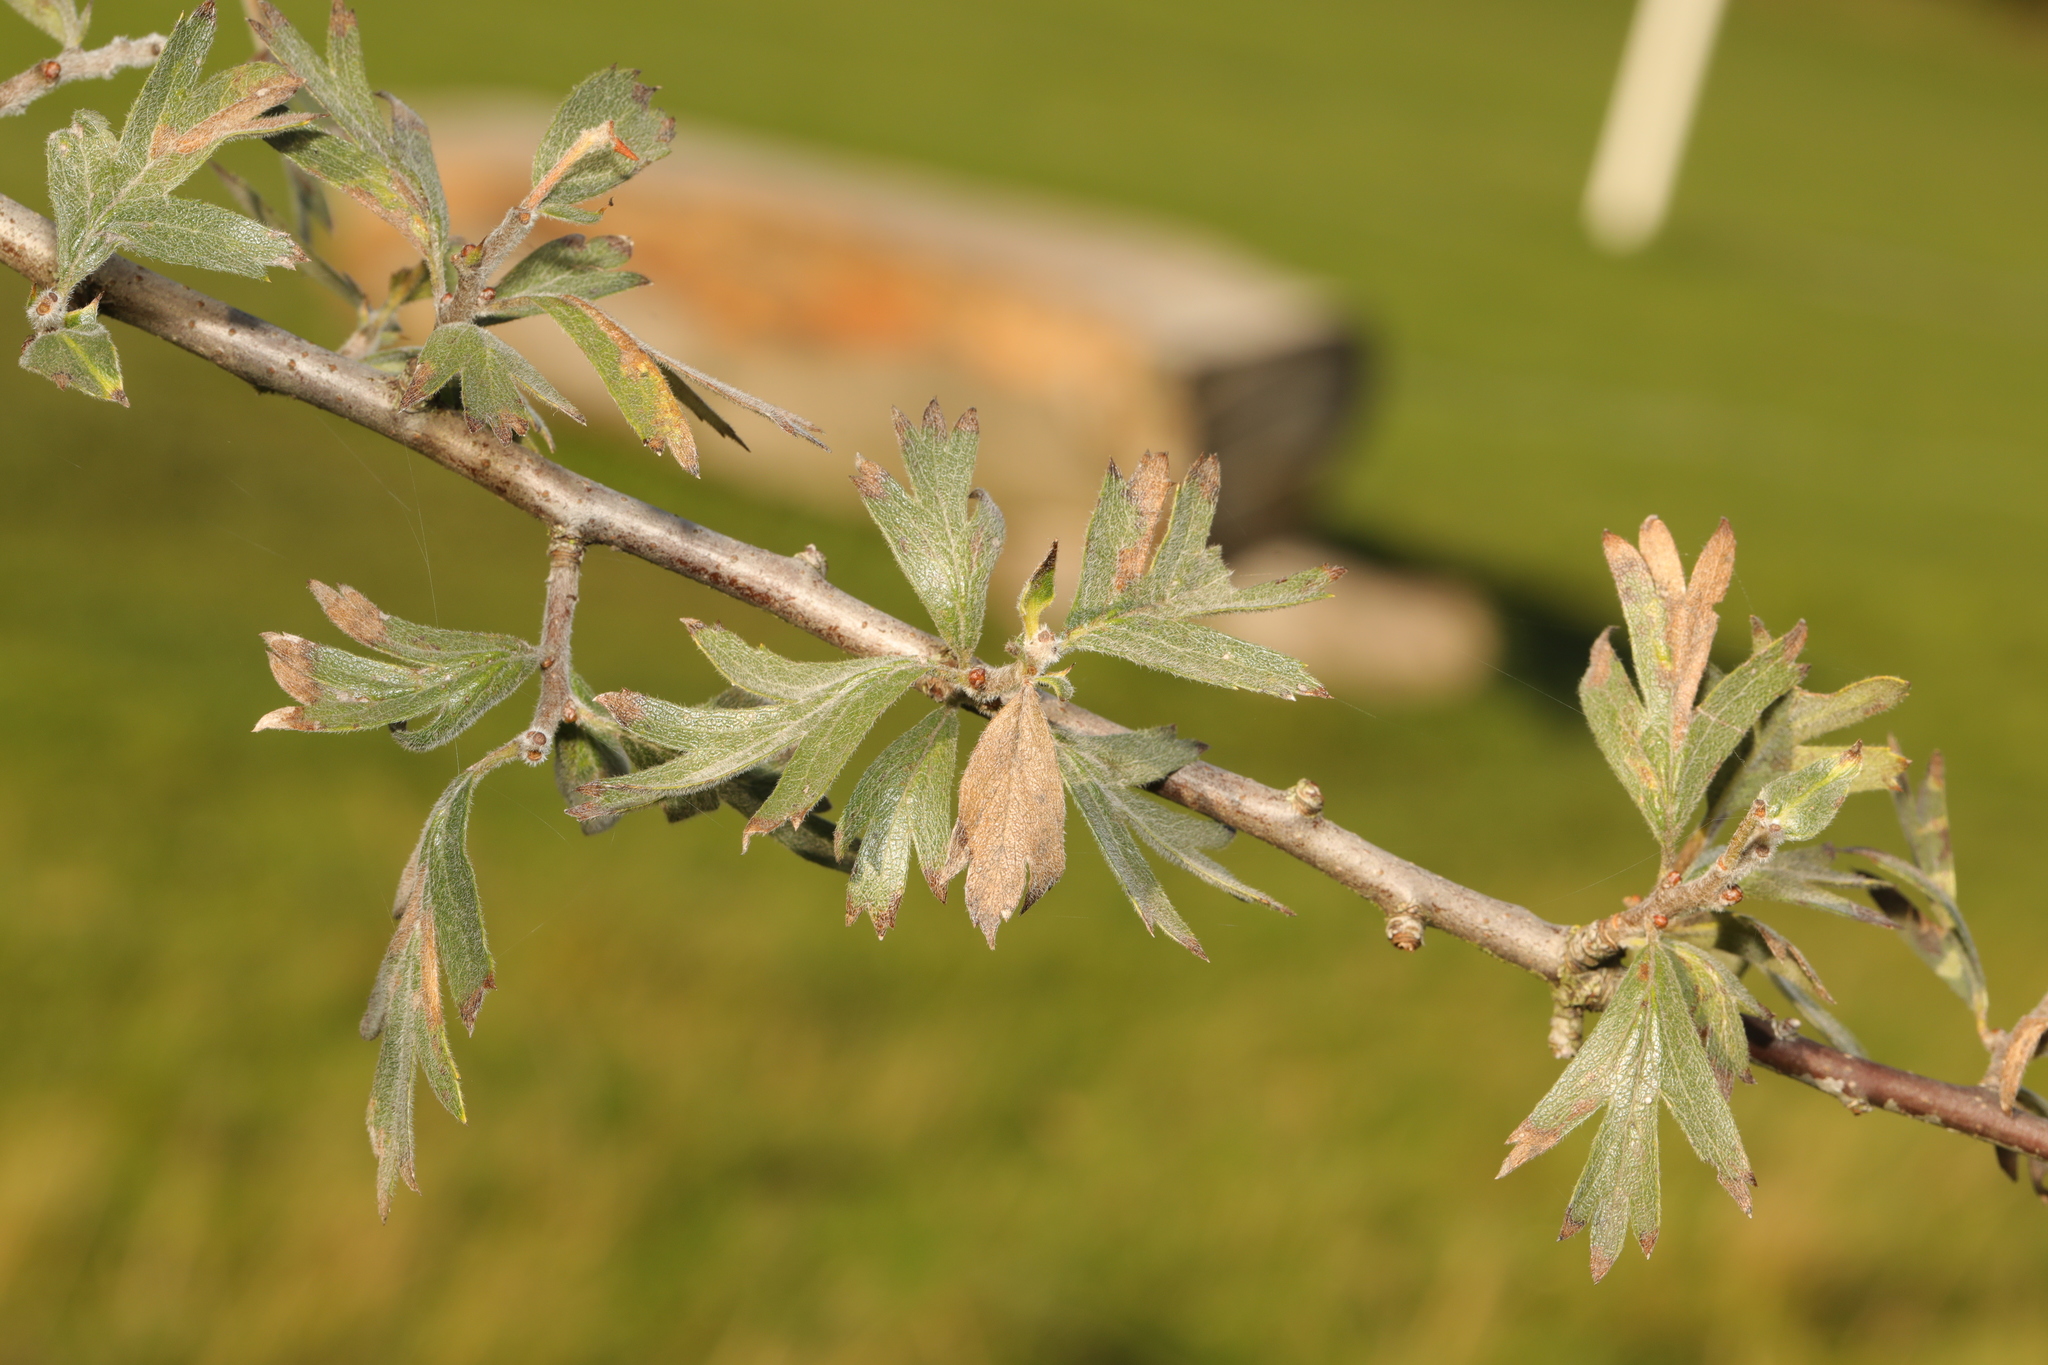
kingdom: Plantae
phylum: Tracheophyta
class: Magnoliopsida
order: Rosales
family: Rosaceae
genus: Crataegus
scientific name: Crataegus monogyna
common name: Hawthorn
